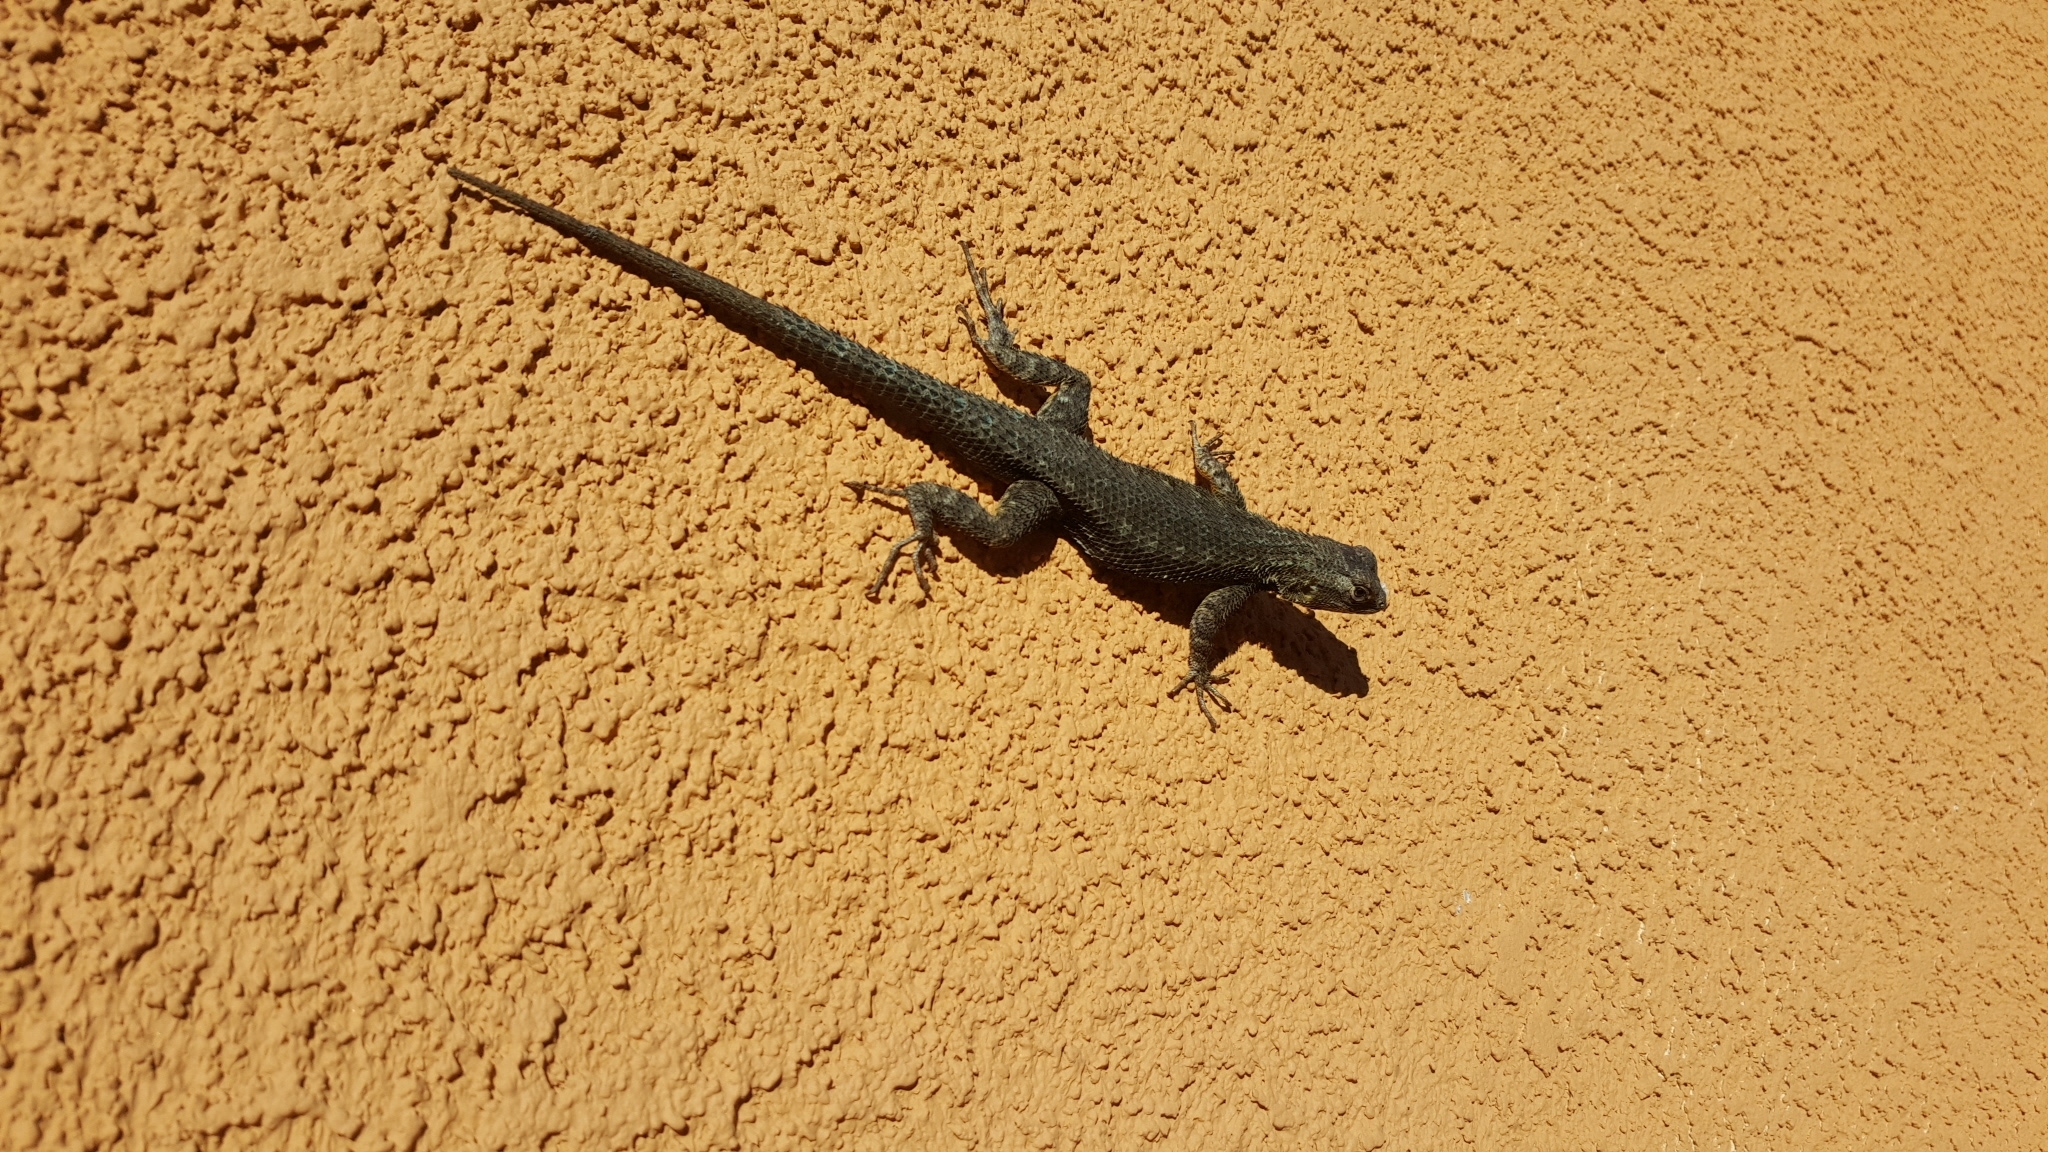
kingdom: Animalia
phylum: Chordata
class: Squamata
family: Phrynosomatidae
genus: Sceloporus
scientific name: Sceloporus occidentalis
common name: Western fence lizard
